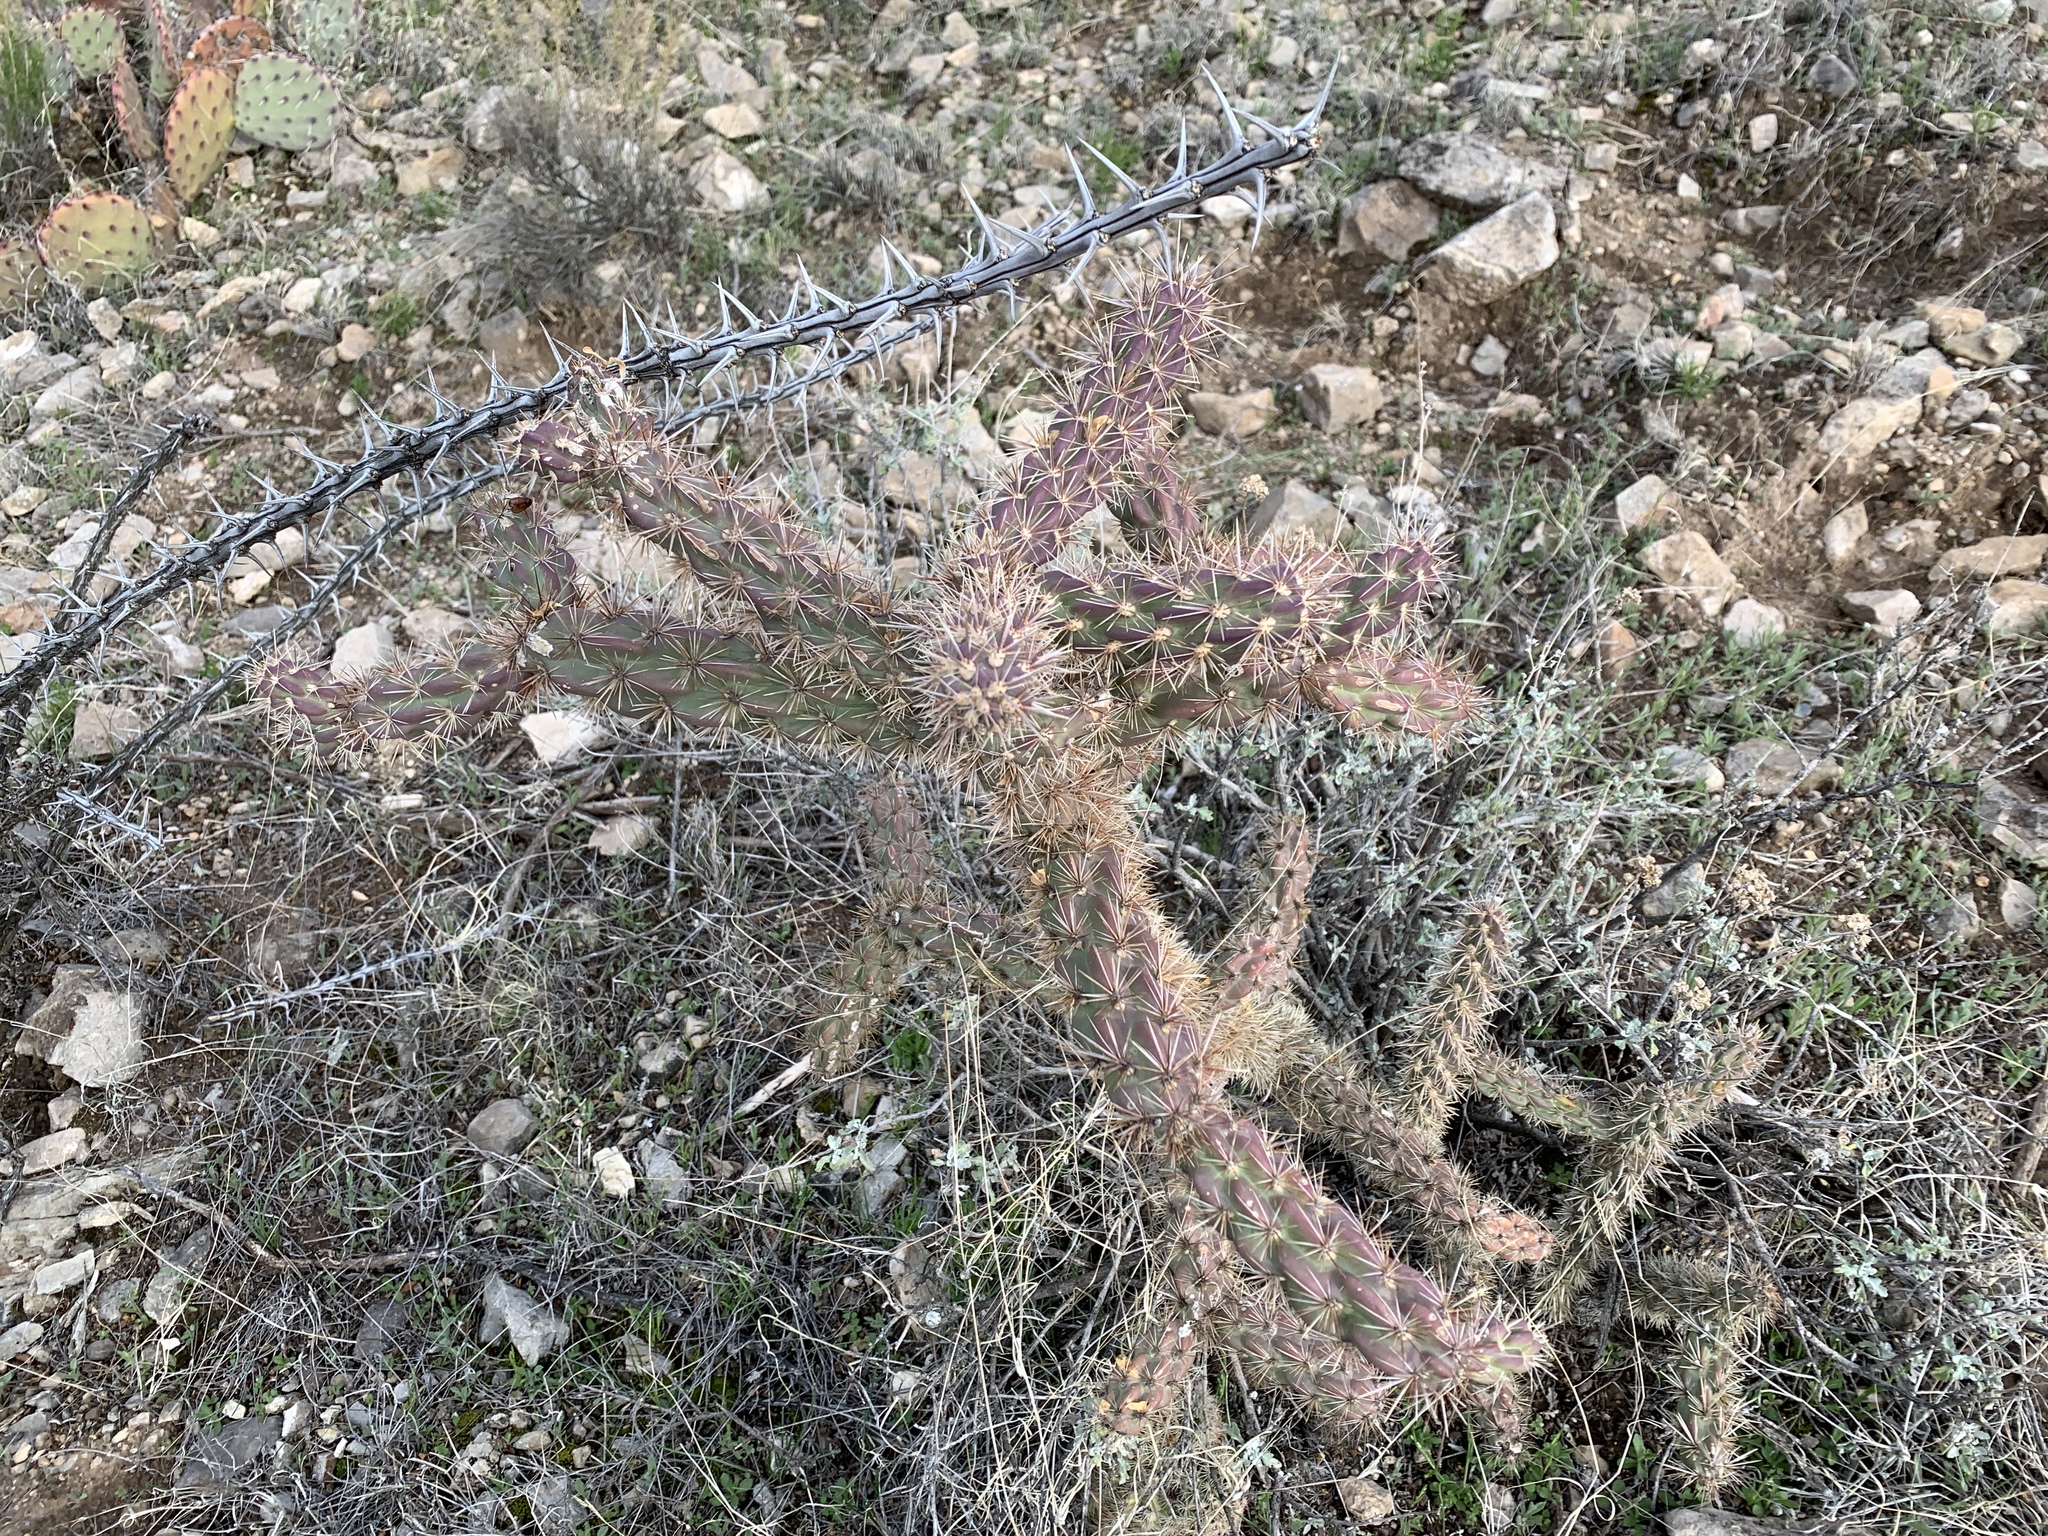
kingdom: Plantae
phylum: Tracheophyta
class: Magnoliopsida
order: Caryophyllales
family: Cactaceae
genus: Cylindropuntia
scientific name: Cylindropuntia imbricata
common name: Candelabrum cactus
